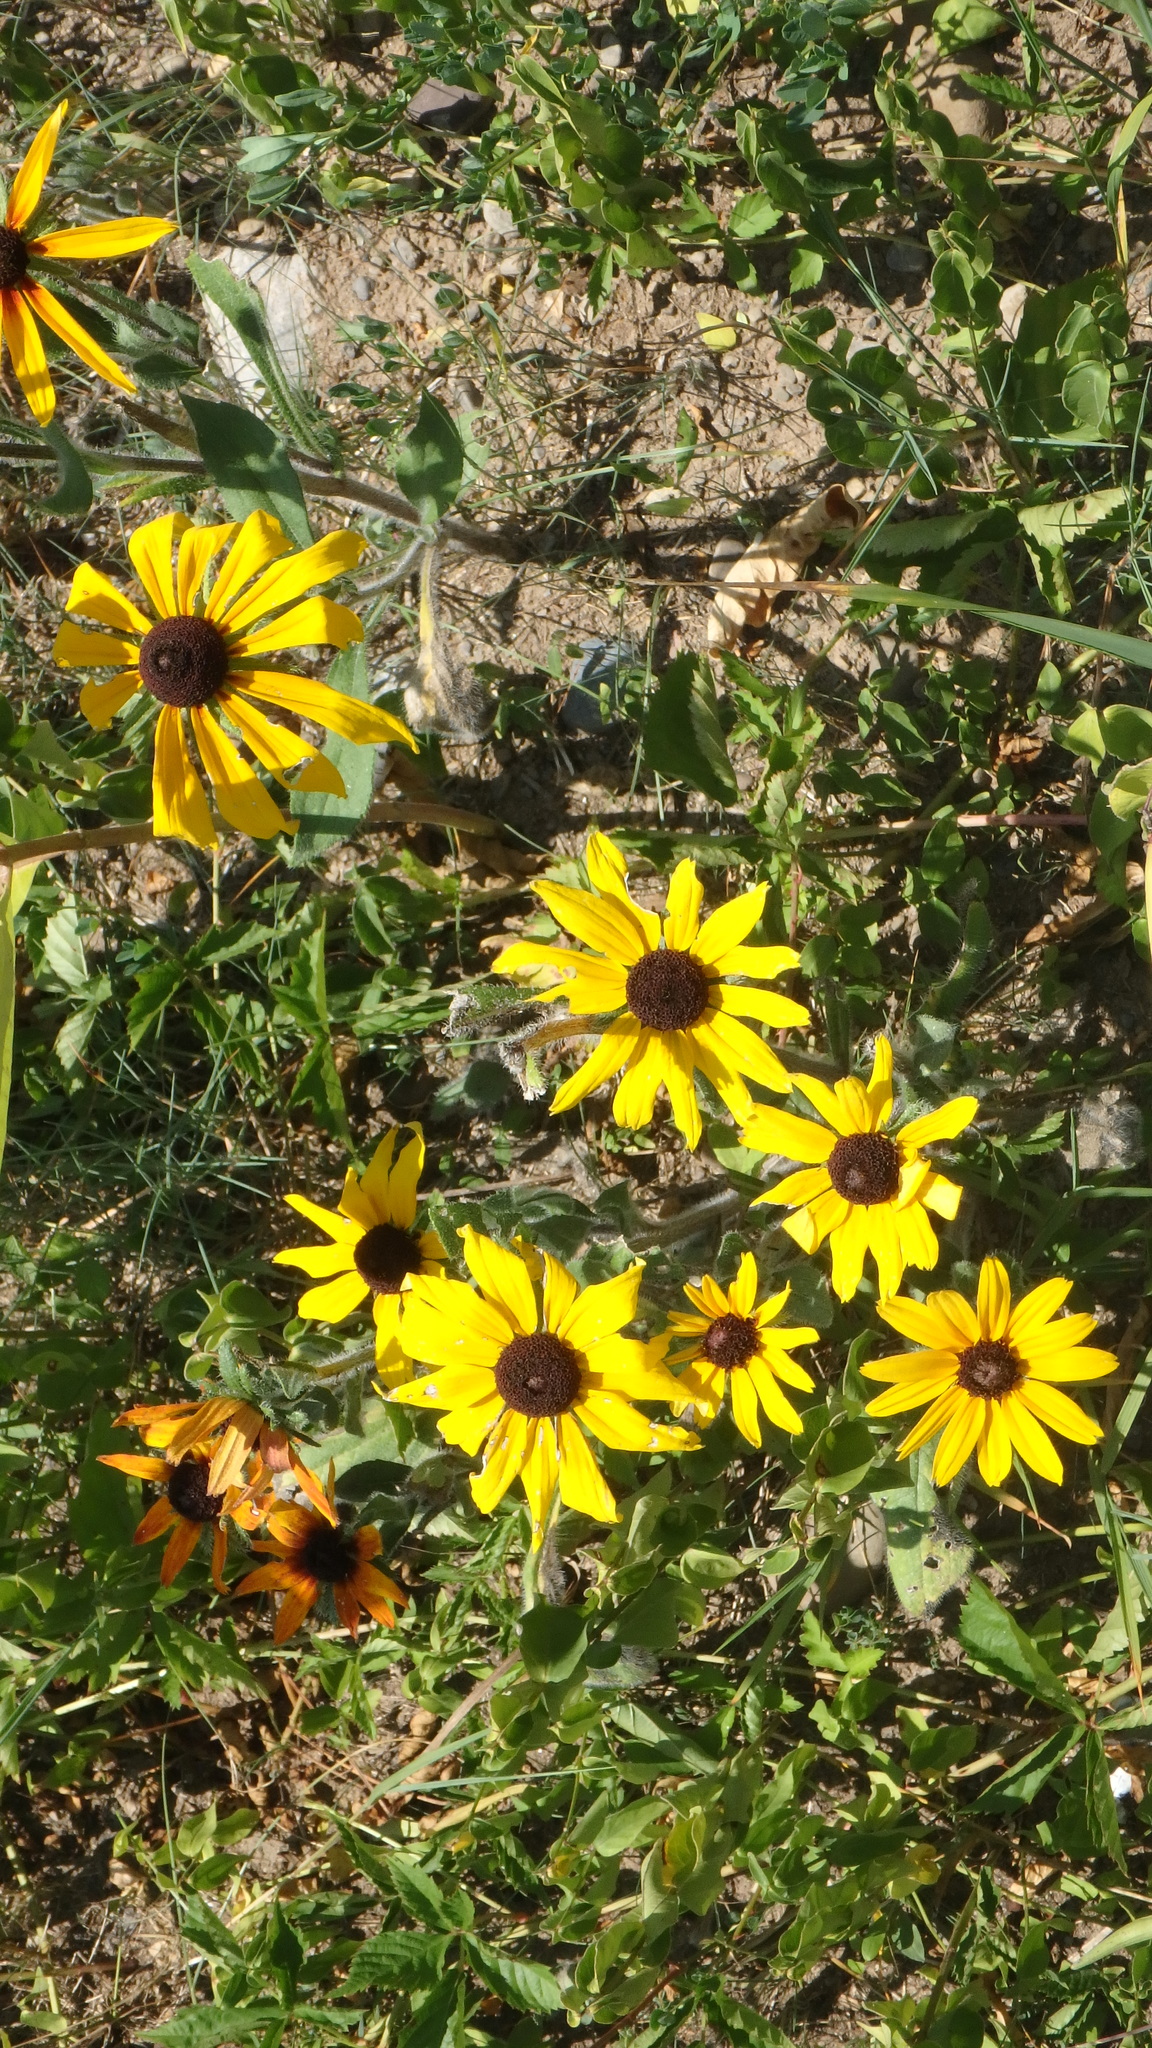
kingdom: Plantae
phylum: Tracheophyta
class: Magnoliopsida
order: Asterales
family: Asteraceae
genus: Rudbeckia
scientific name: Rudbeckia hirta
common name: Black-eyed-susan
